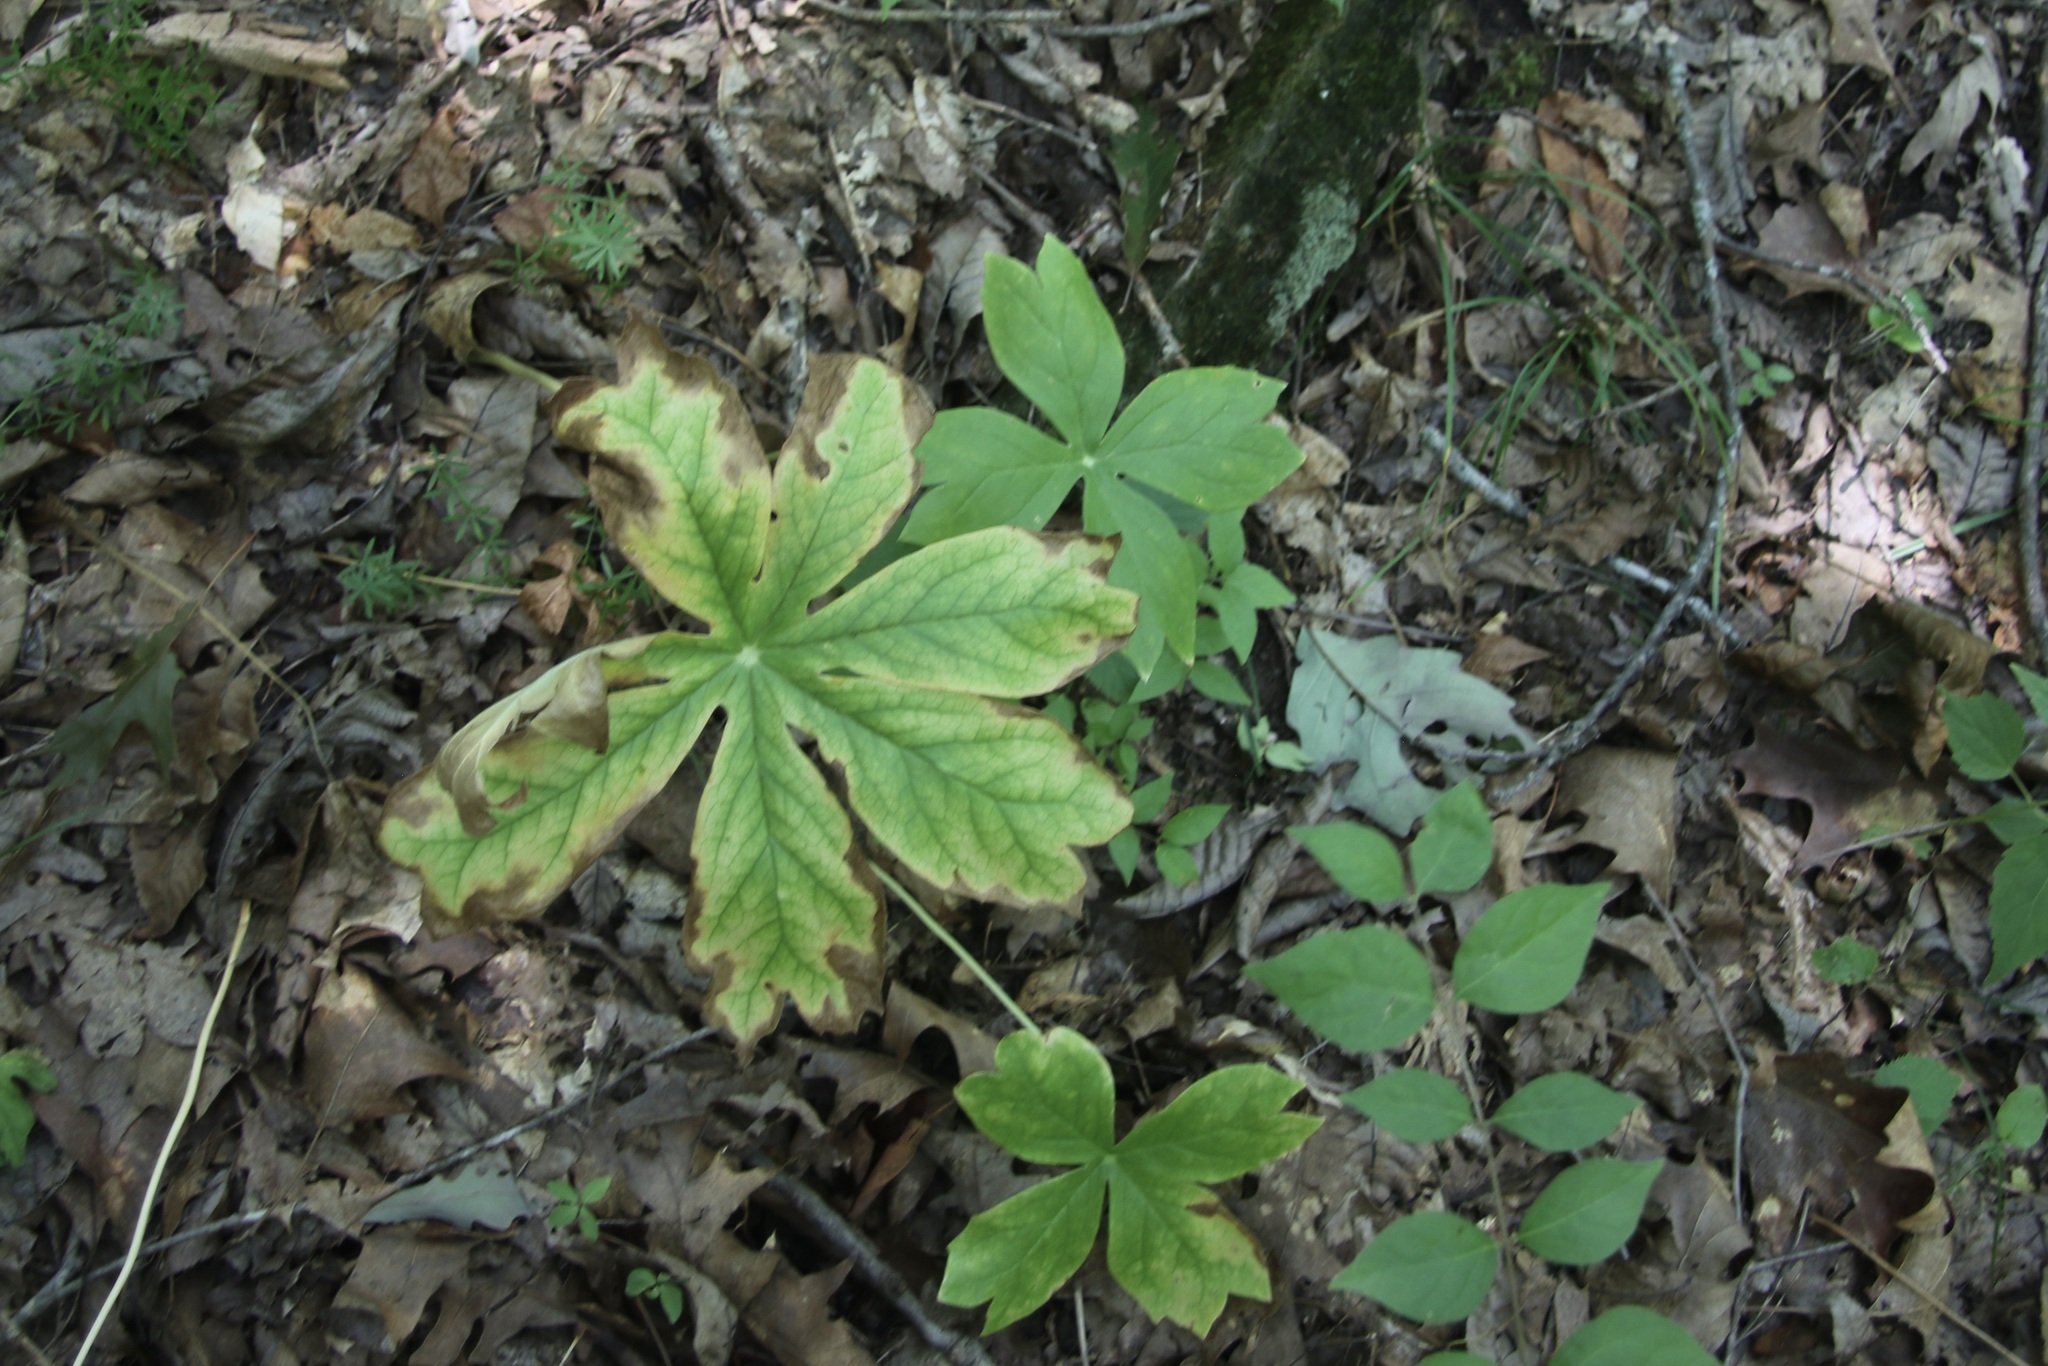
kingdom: Plantae
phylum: Tracheophyta
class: Magnoliopsida
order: Ranunculales
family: Berberidaceae
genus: Podophyllum
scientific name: Podophyllum peltatum
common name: Wild mandrake
